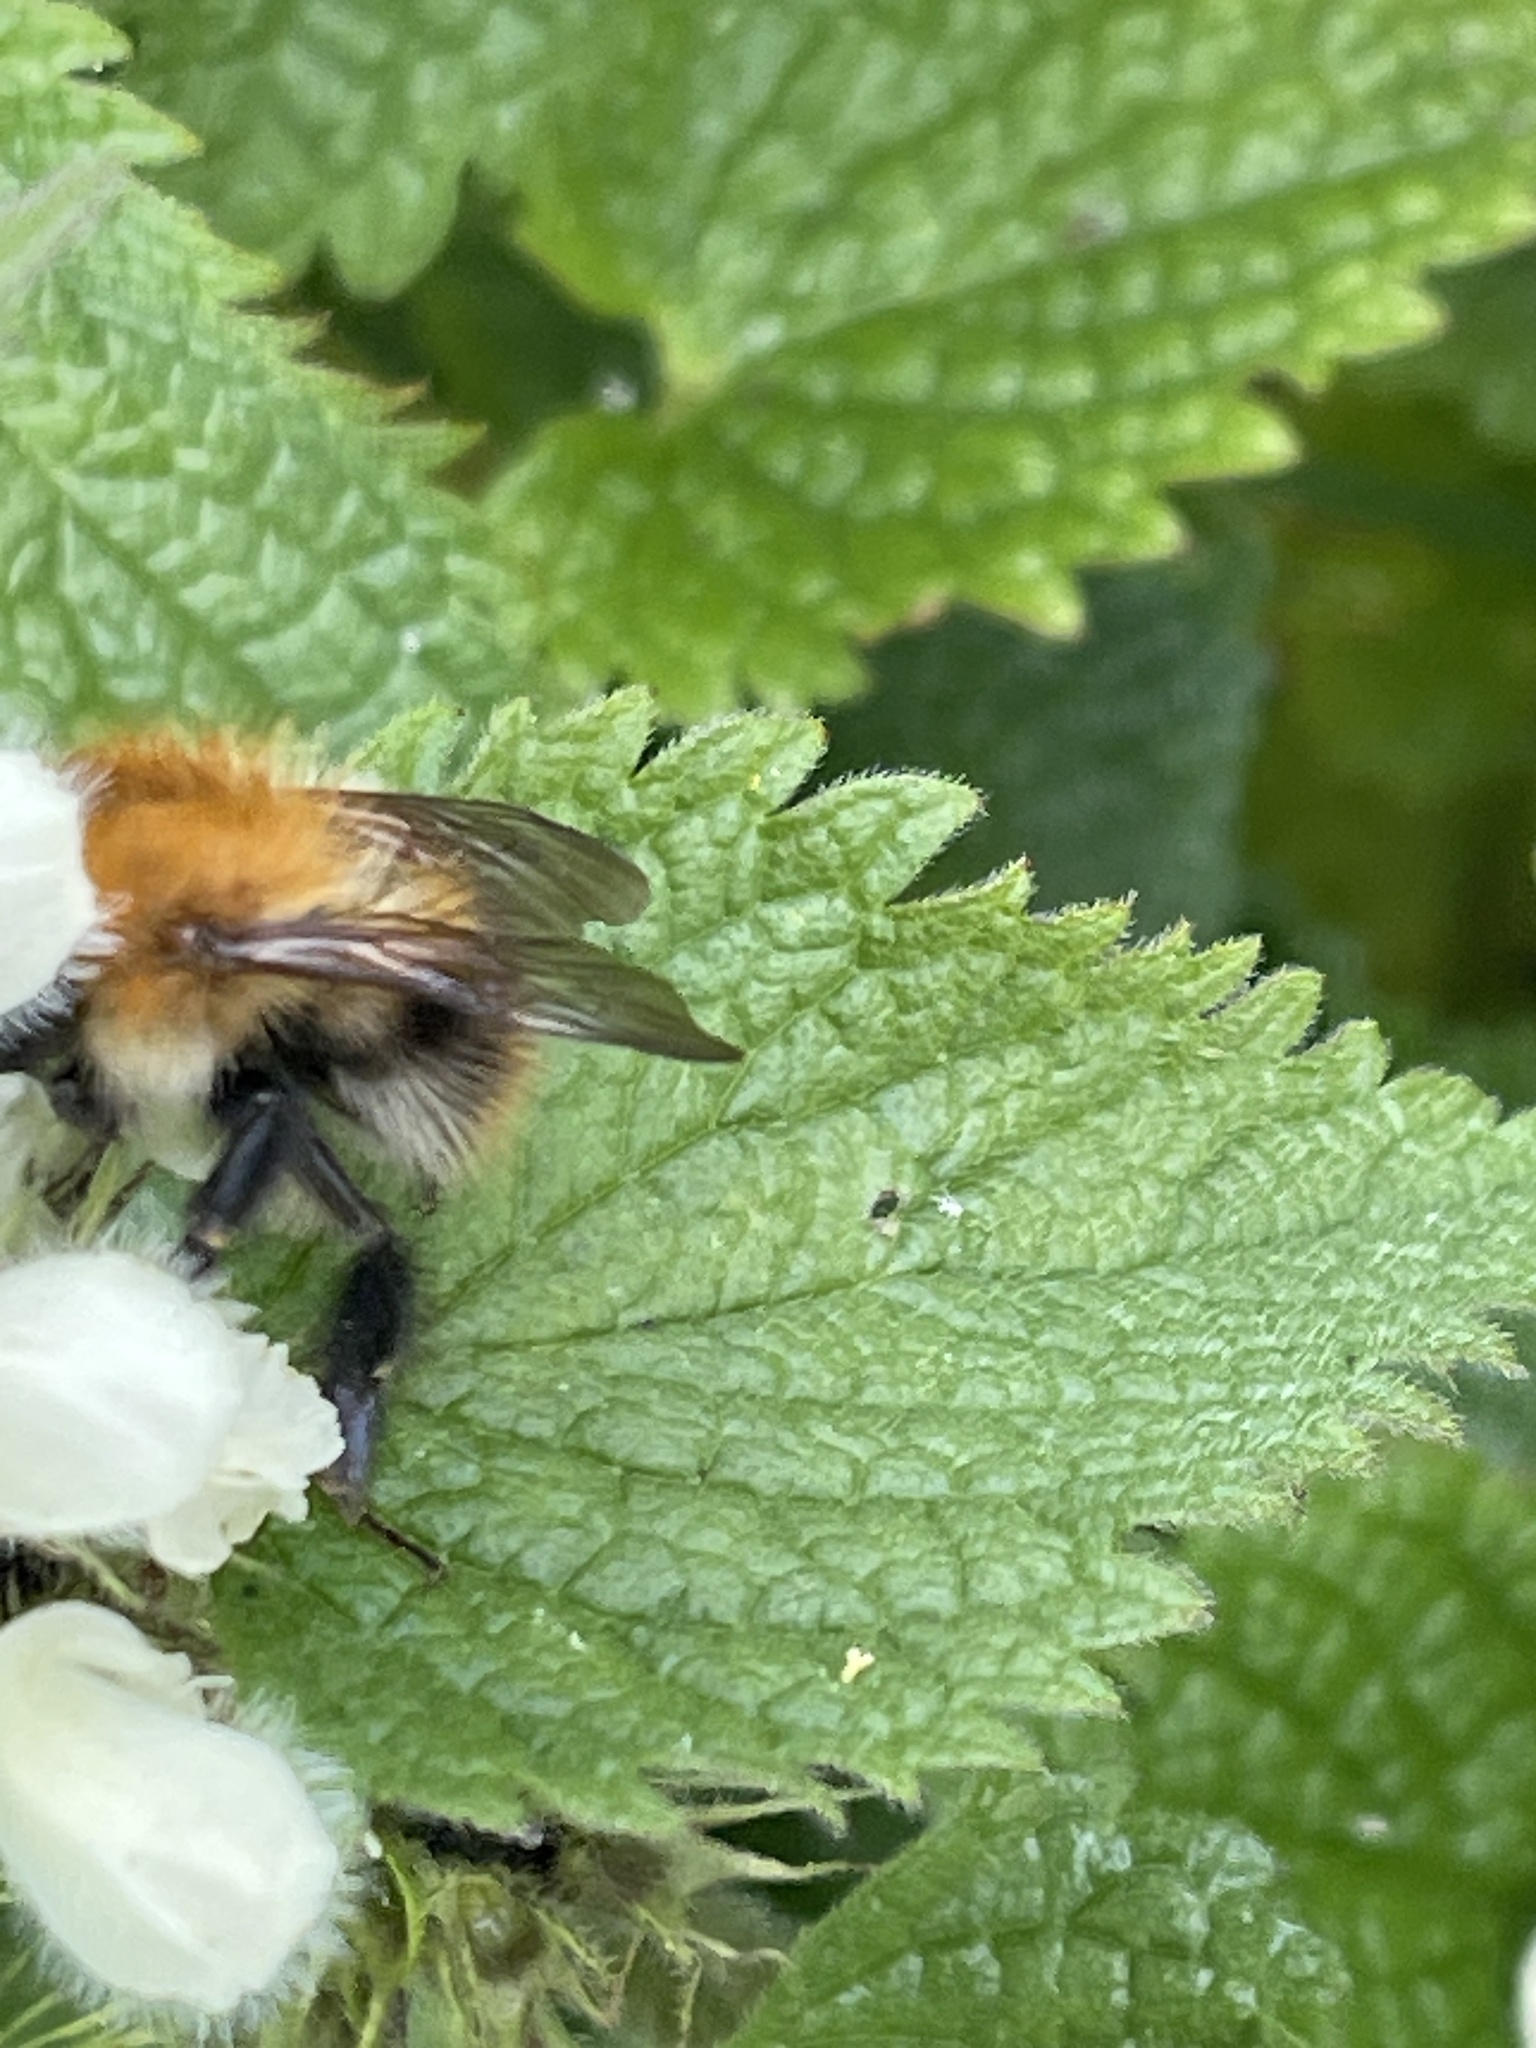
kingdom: Animalia
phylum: Arthropoda
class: Insecta
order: Hymenoptera
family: Apidae
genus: Bombus
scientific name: Bombus pascuorum
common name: Common carder bee
